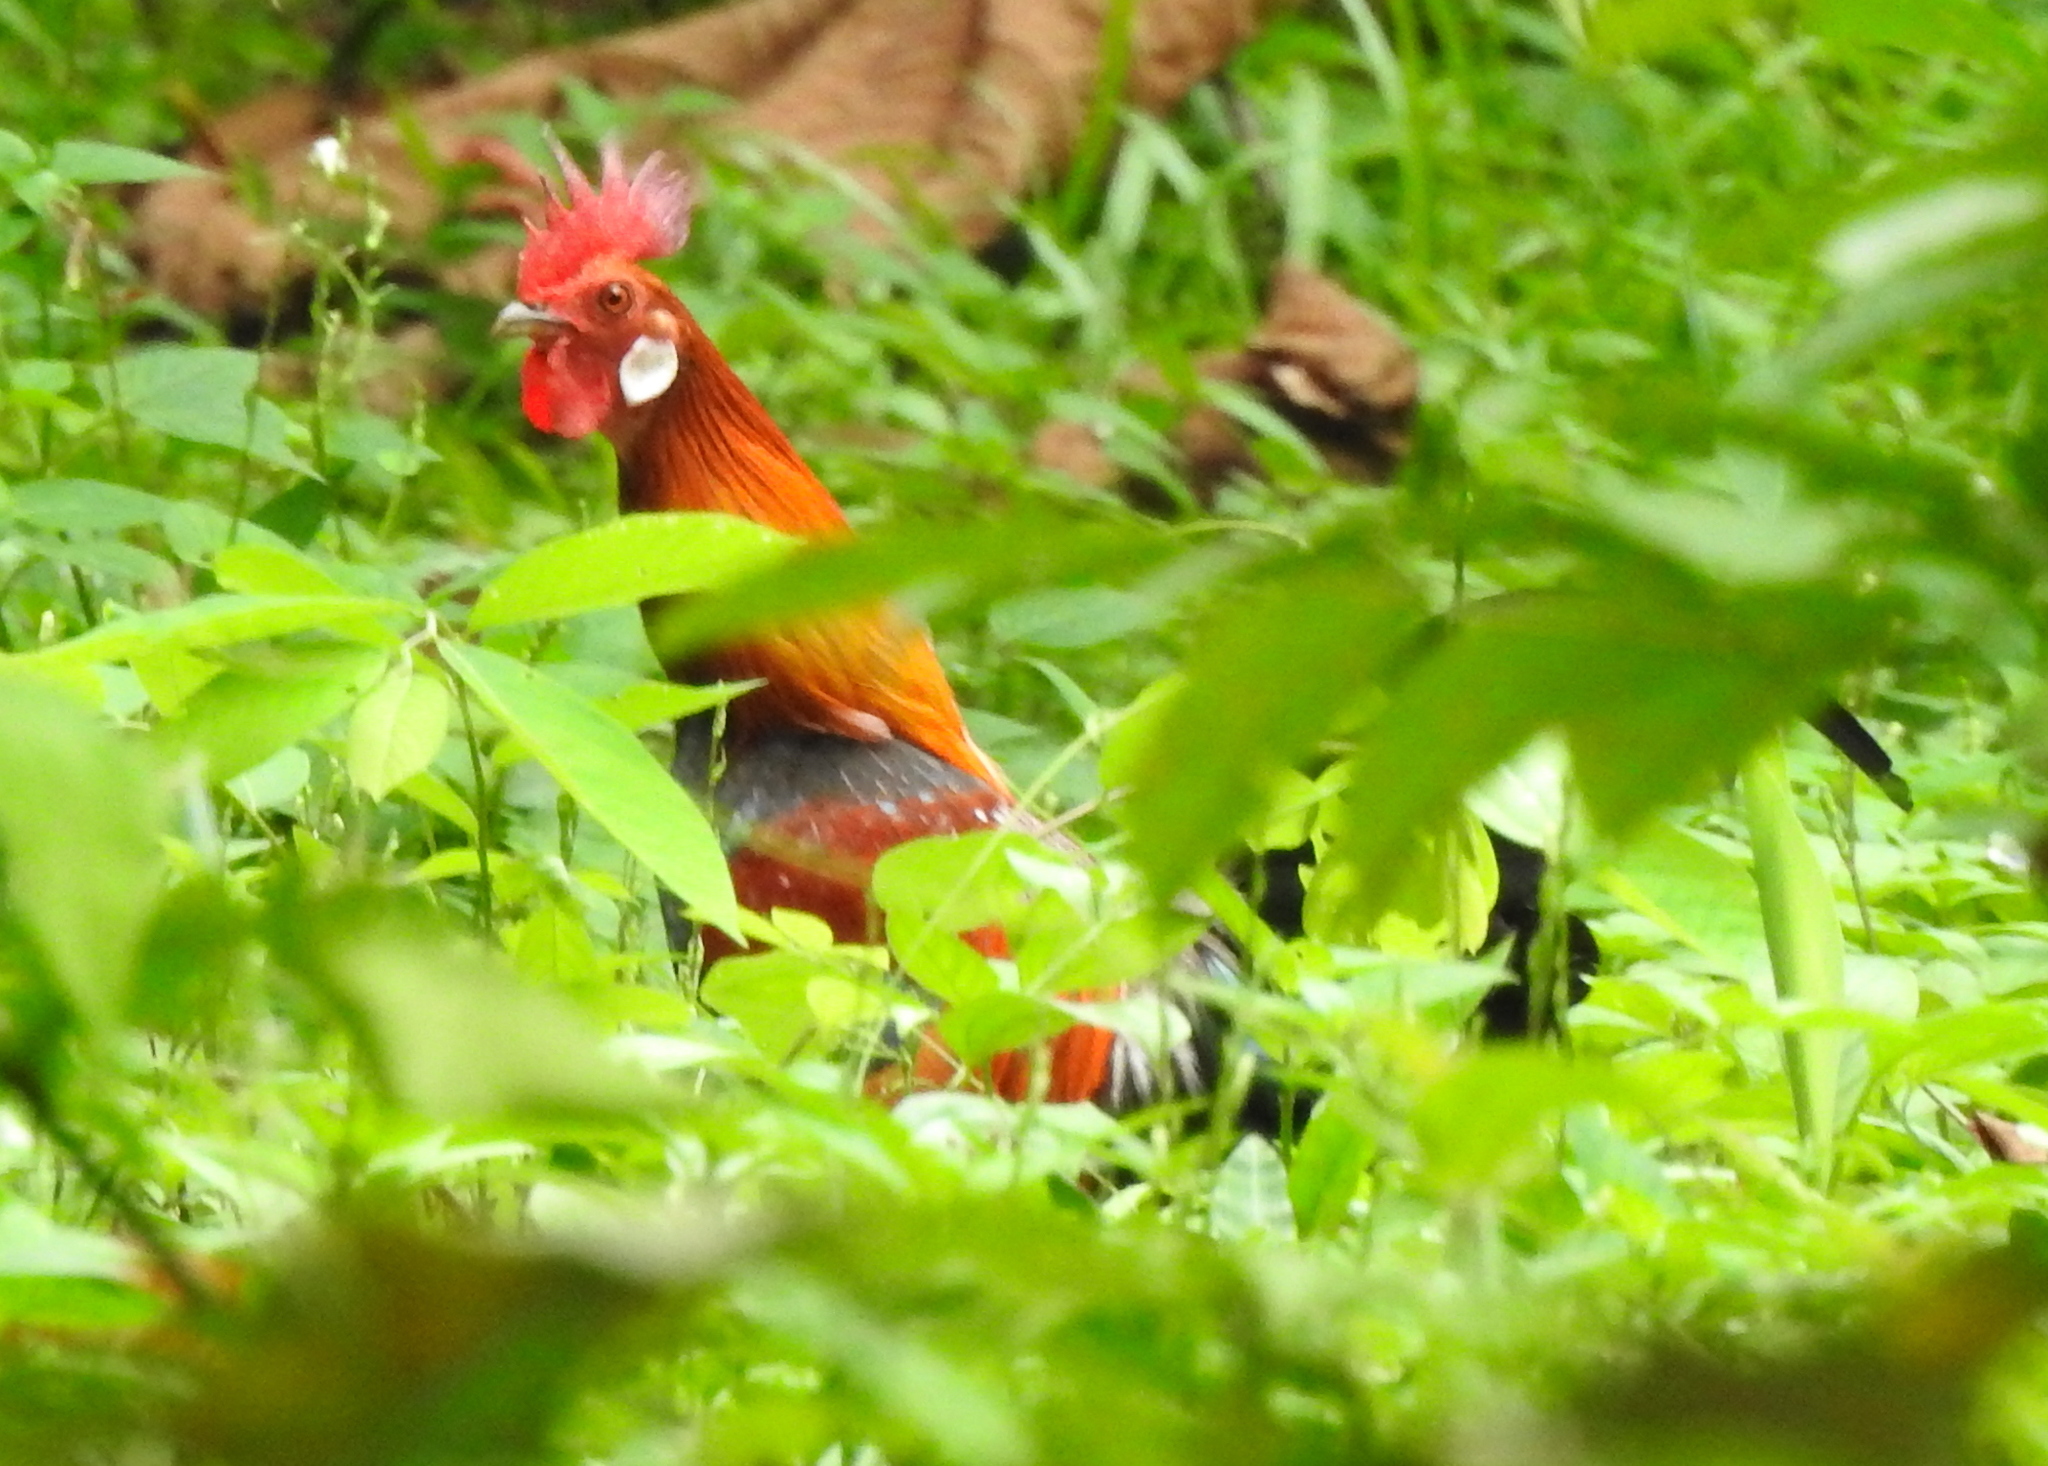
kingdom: Animalia
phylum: Chordata
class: Aves
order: Galliformes
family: Phasianidae
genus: Gallus
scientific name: Gallus gallus
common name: Red junglefowl
